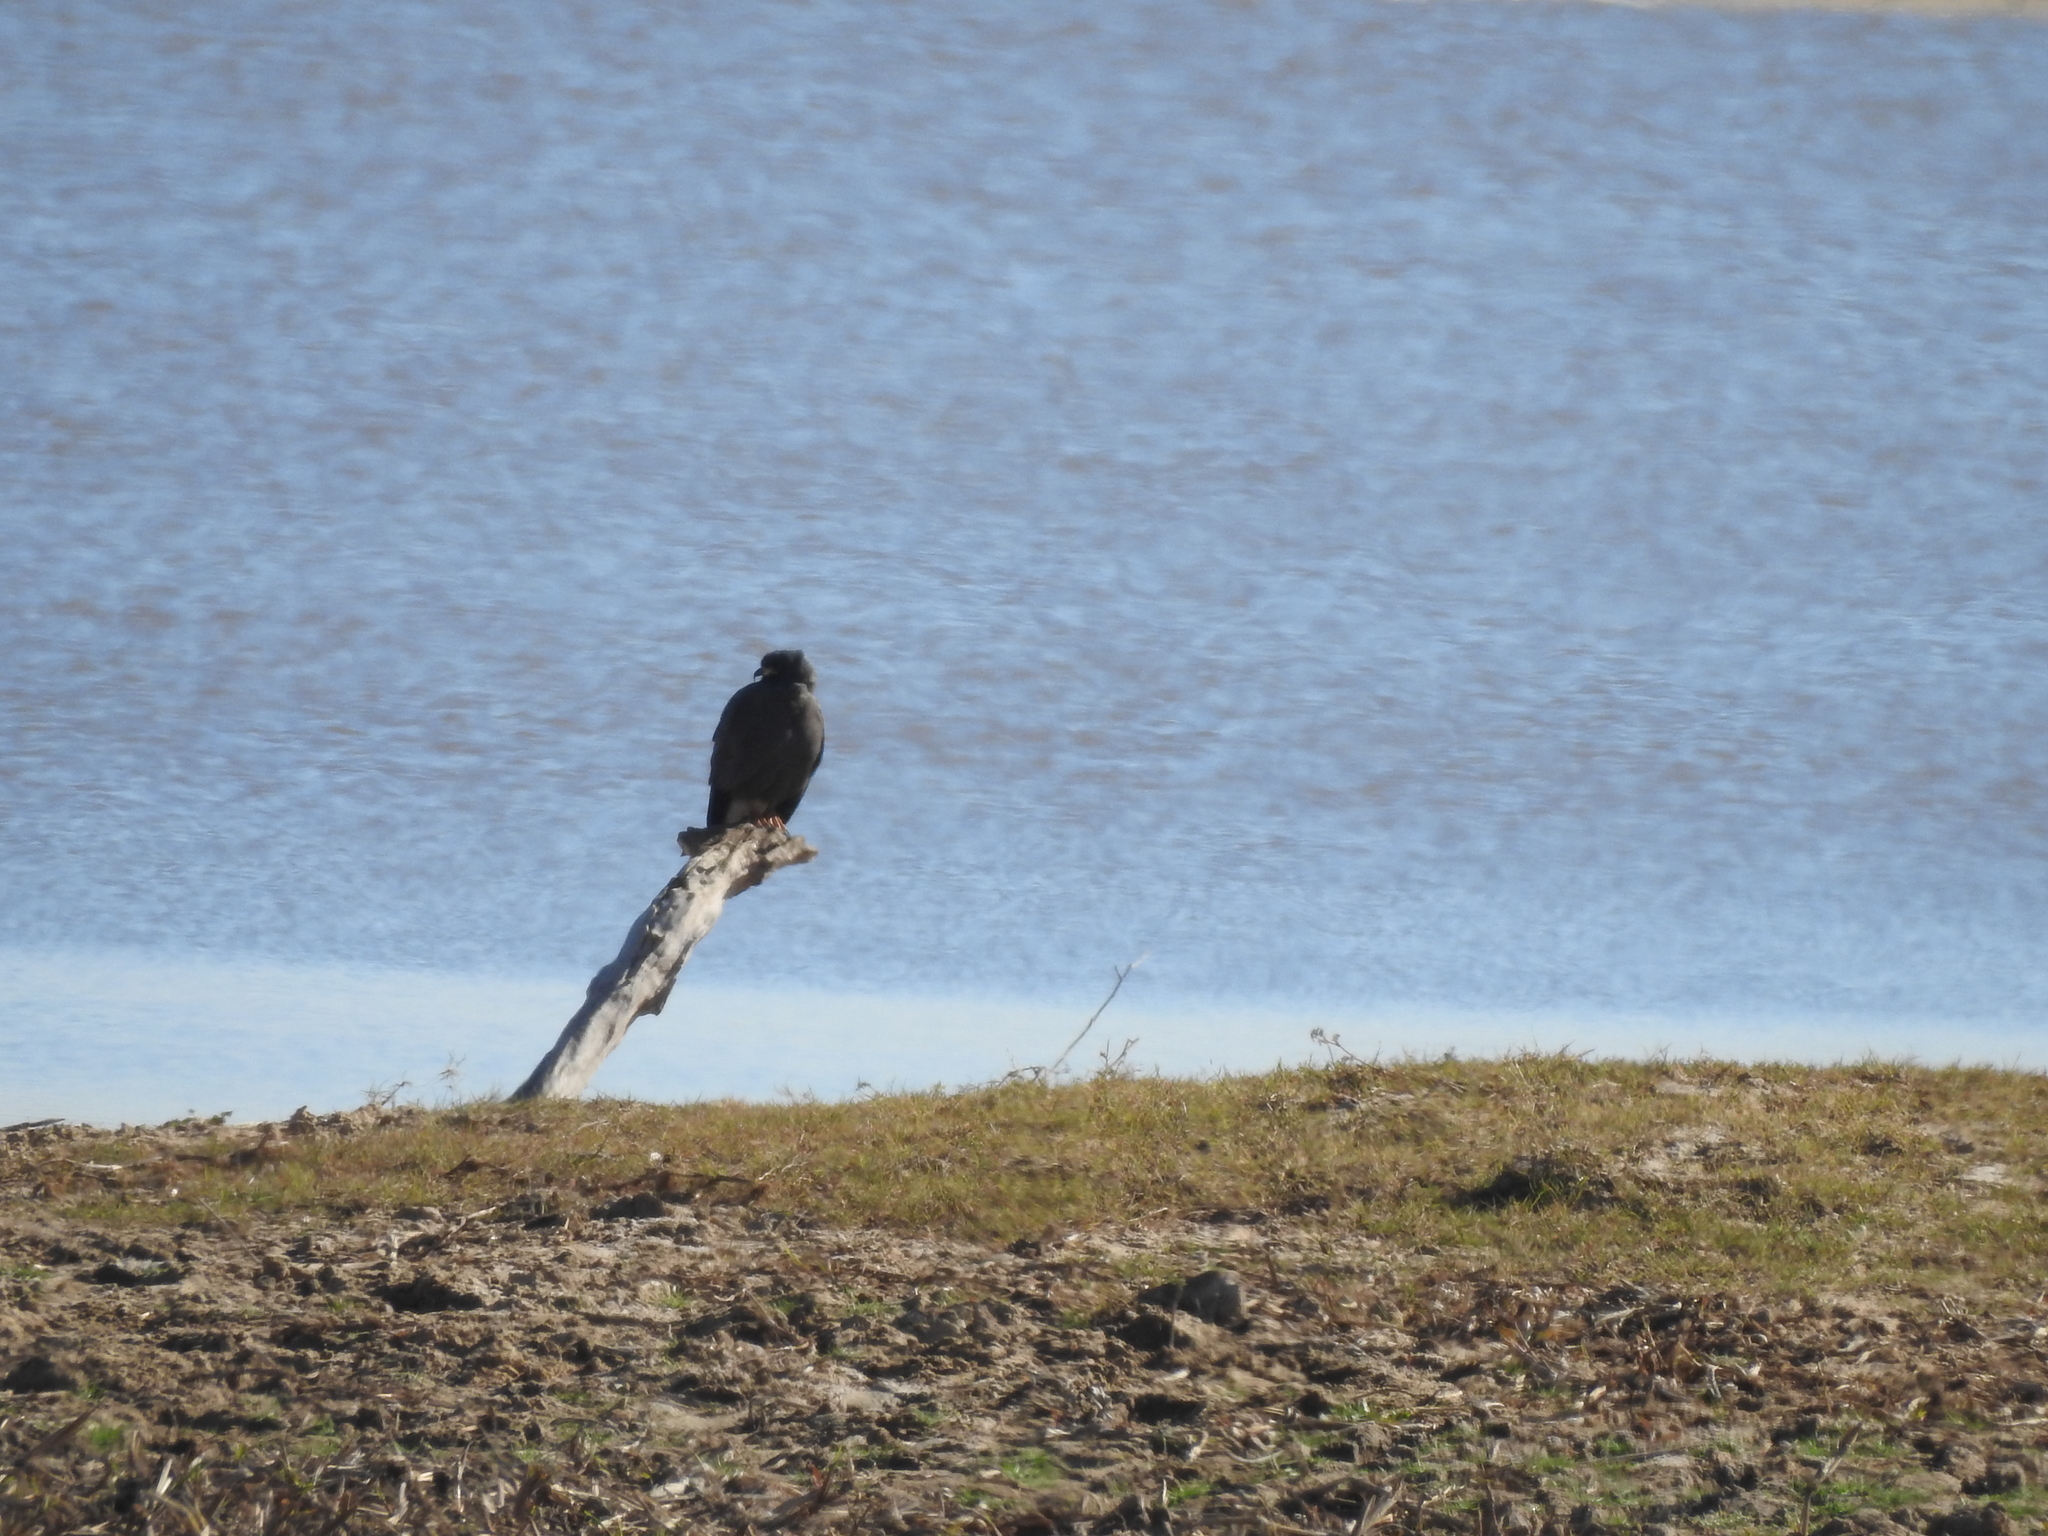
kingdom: Animalia
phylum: Chordata
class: Aves
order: Accipitriformes
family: Accipitridae
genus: Rostrhamus
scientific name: Rostrhamus sociabilis
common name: Snail kite
